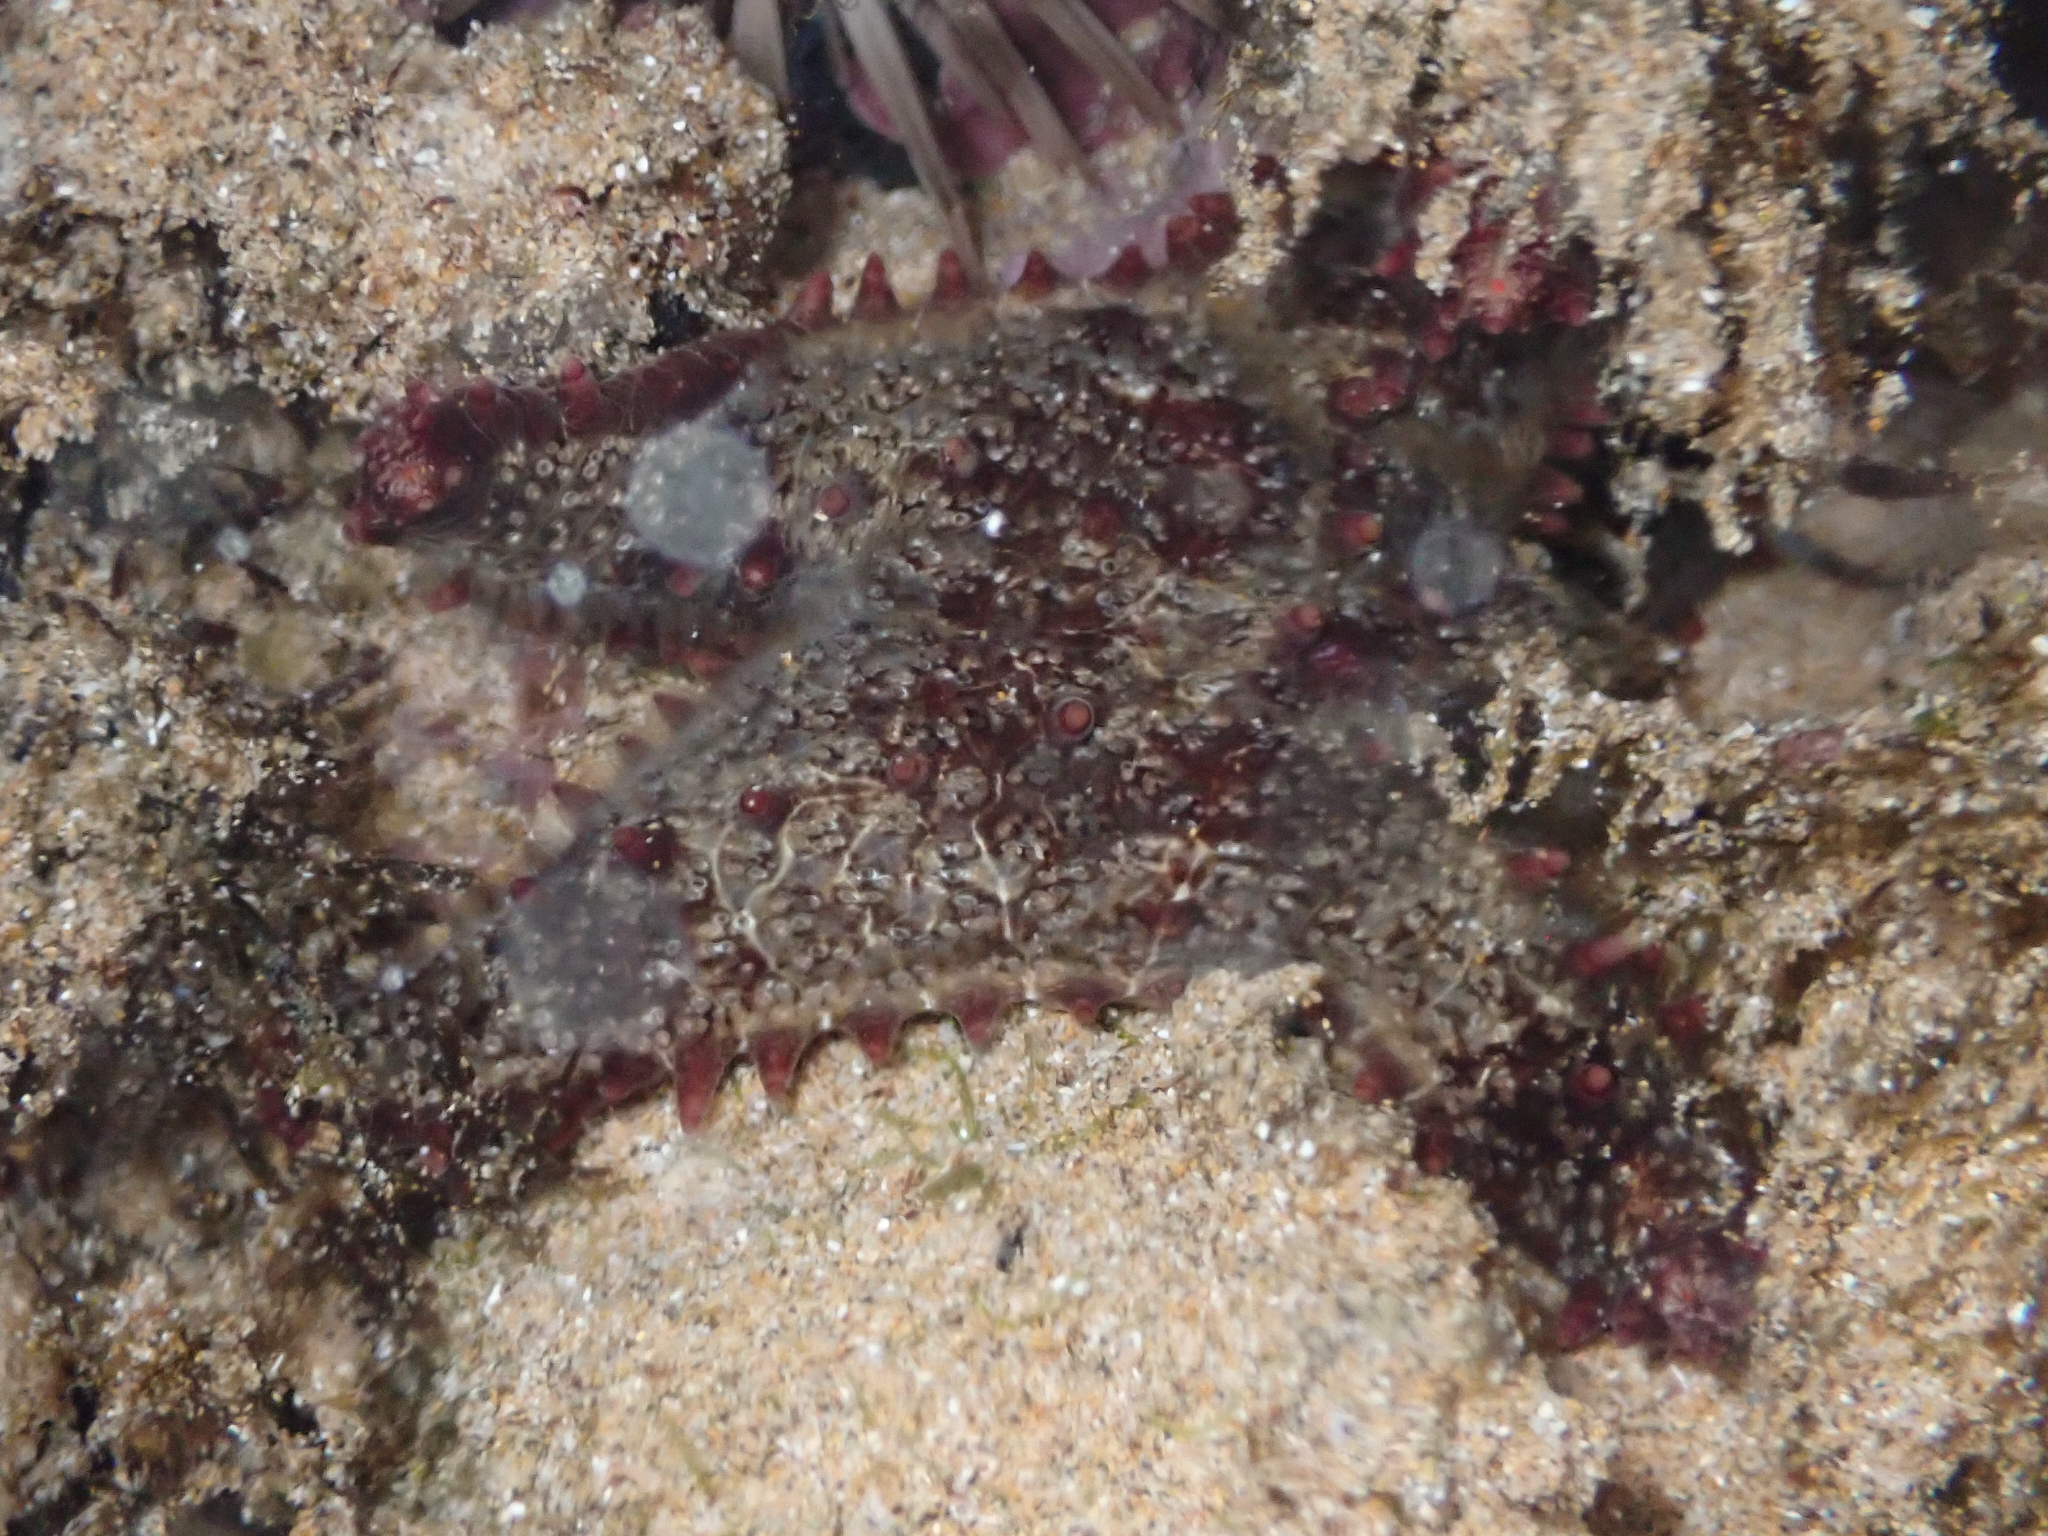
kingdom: Animalia
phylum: Echinodermata
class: Asteroidea
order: Valvatida
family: Asteropseidae
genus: Asteropsis
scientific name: Asteropsis carinifera
